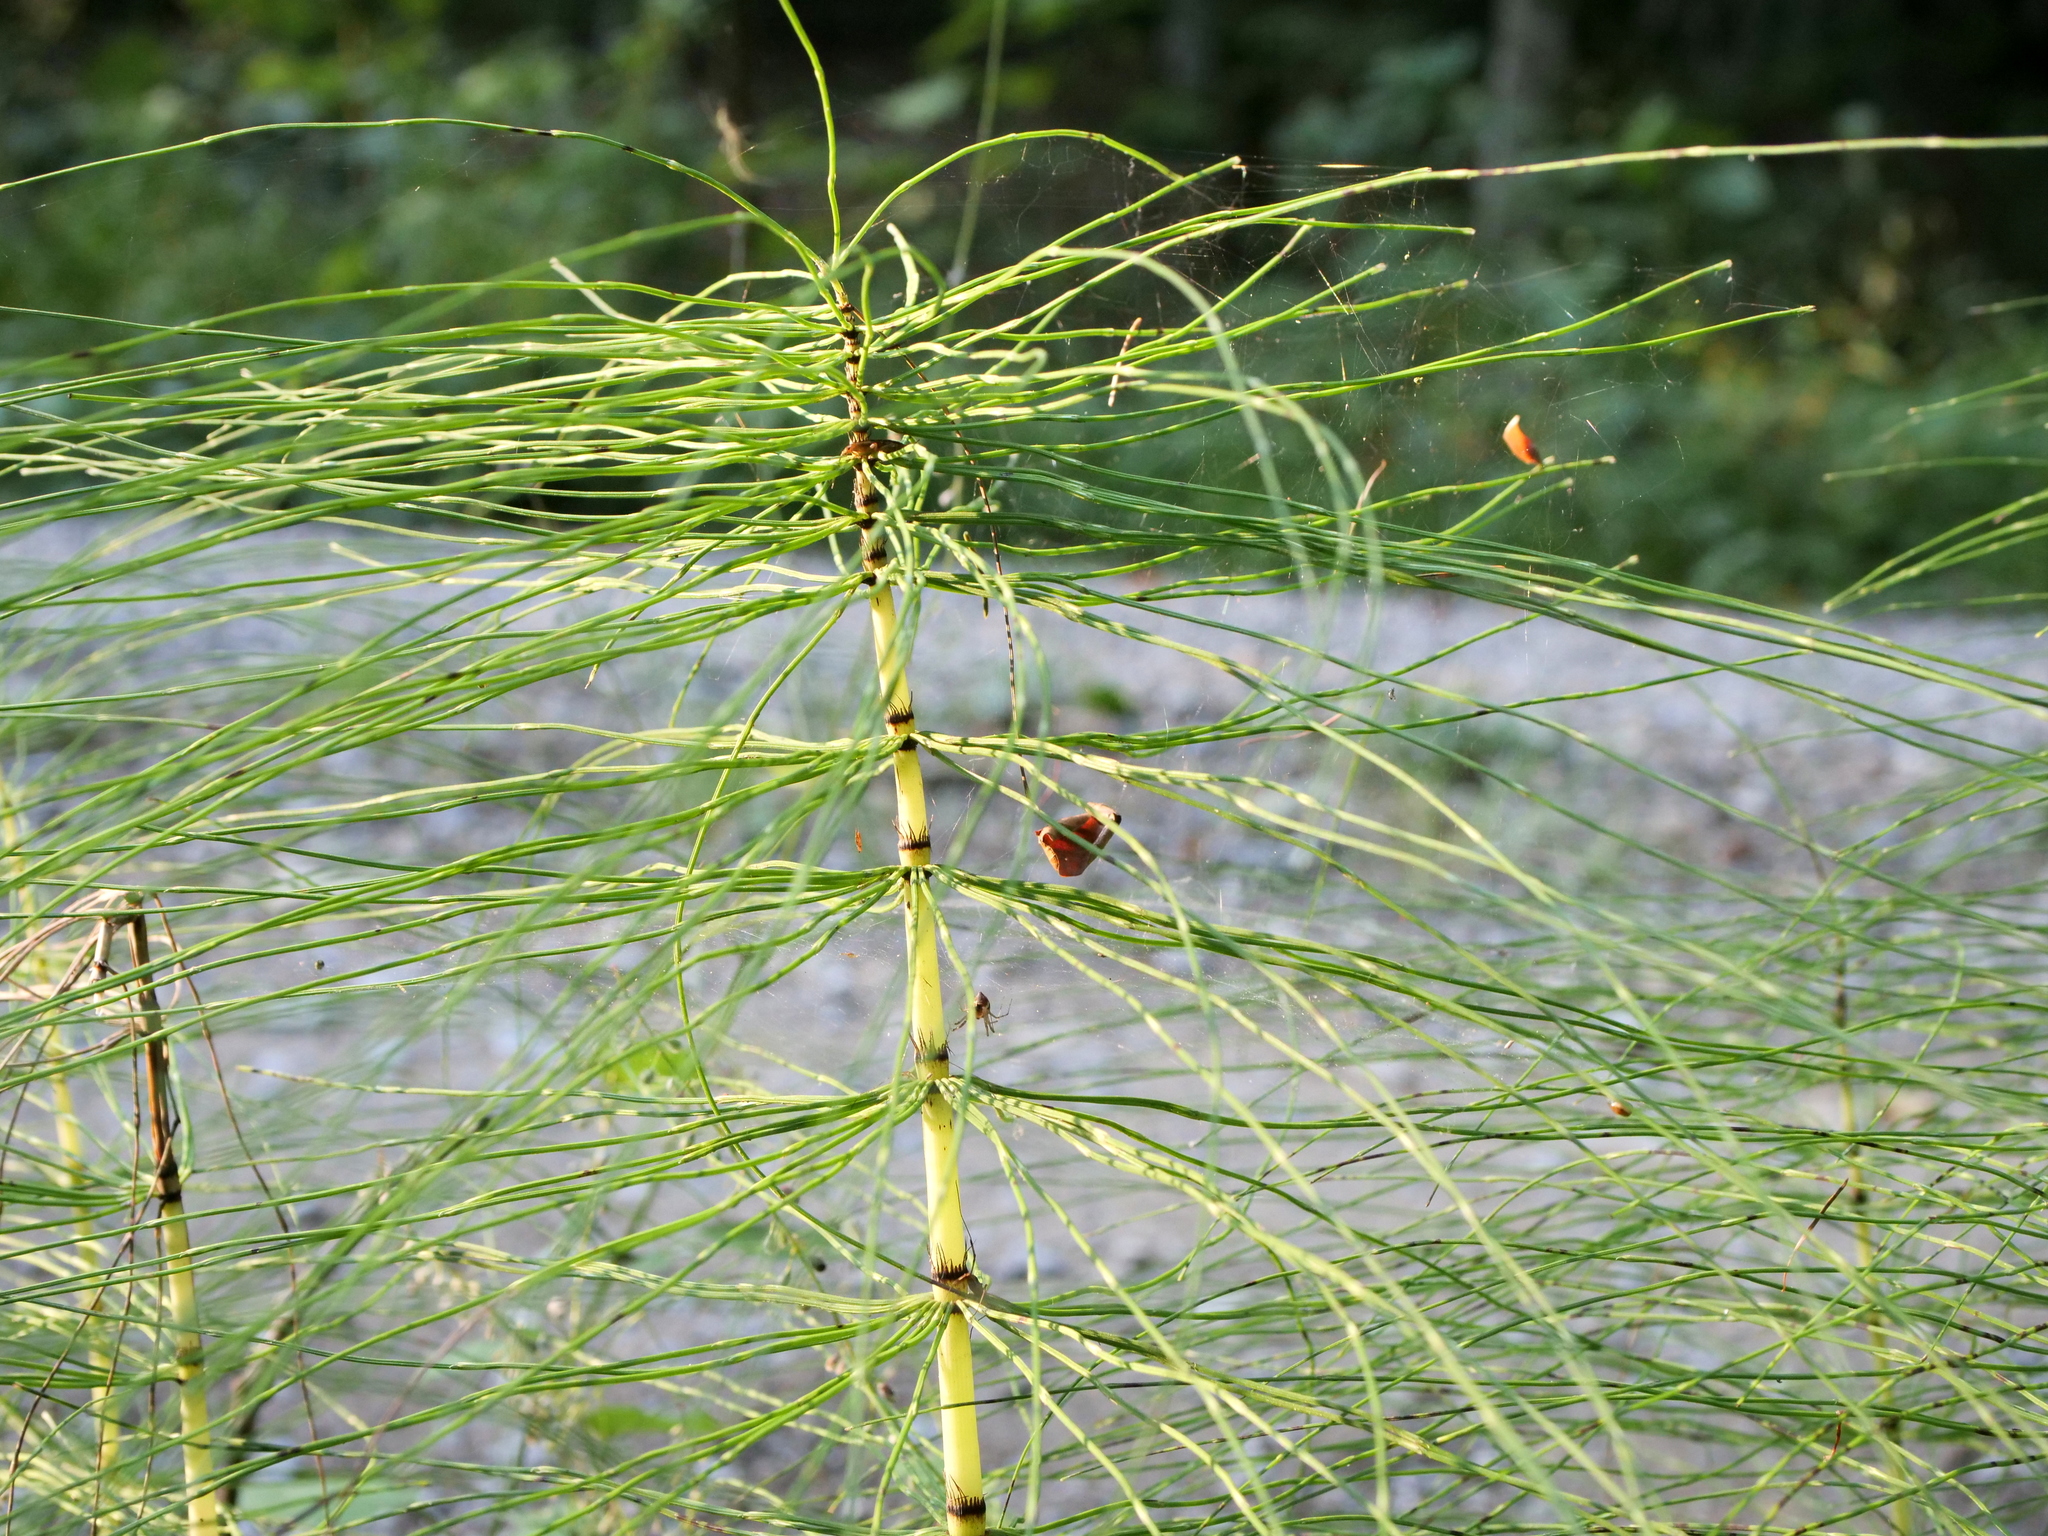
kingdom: Plantae
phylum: Tracheophyta
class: Polypodiopsida
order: Equisetales
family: Equisetaceae
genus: Equisetum
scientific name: Equisetum telmateia
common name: Great horsetail
